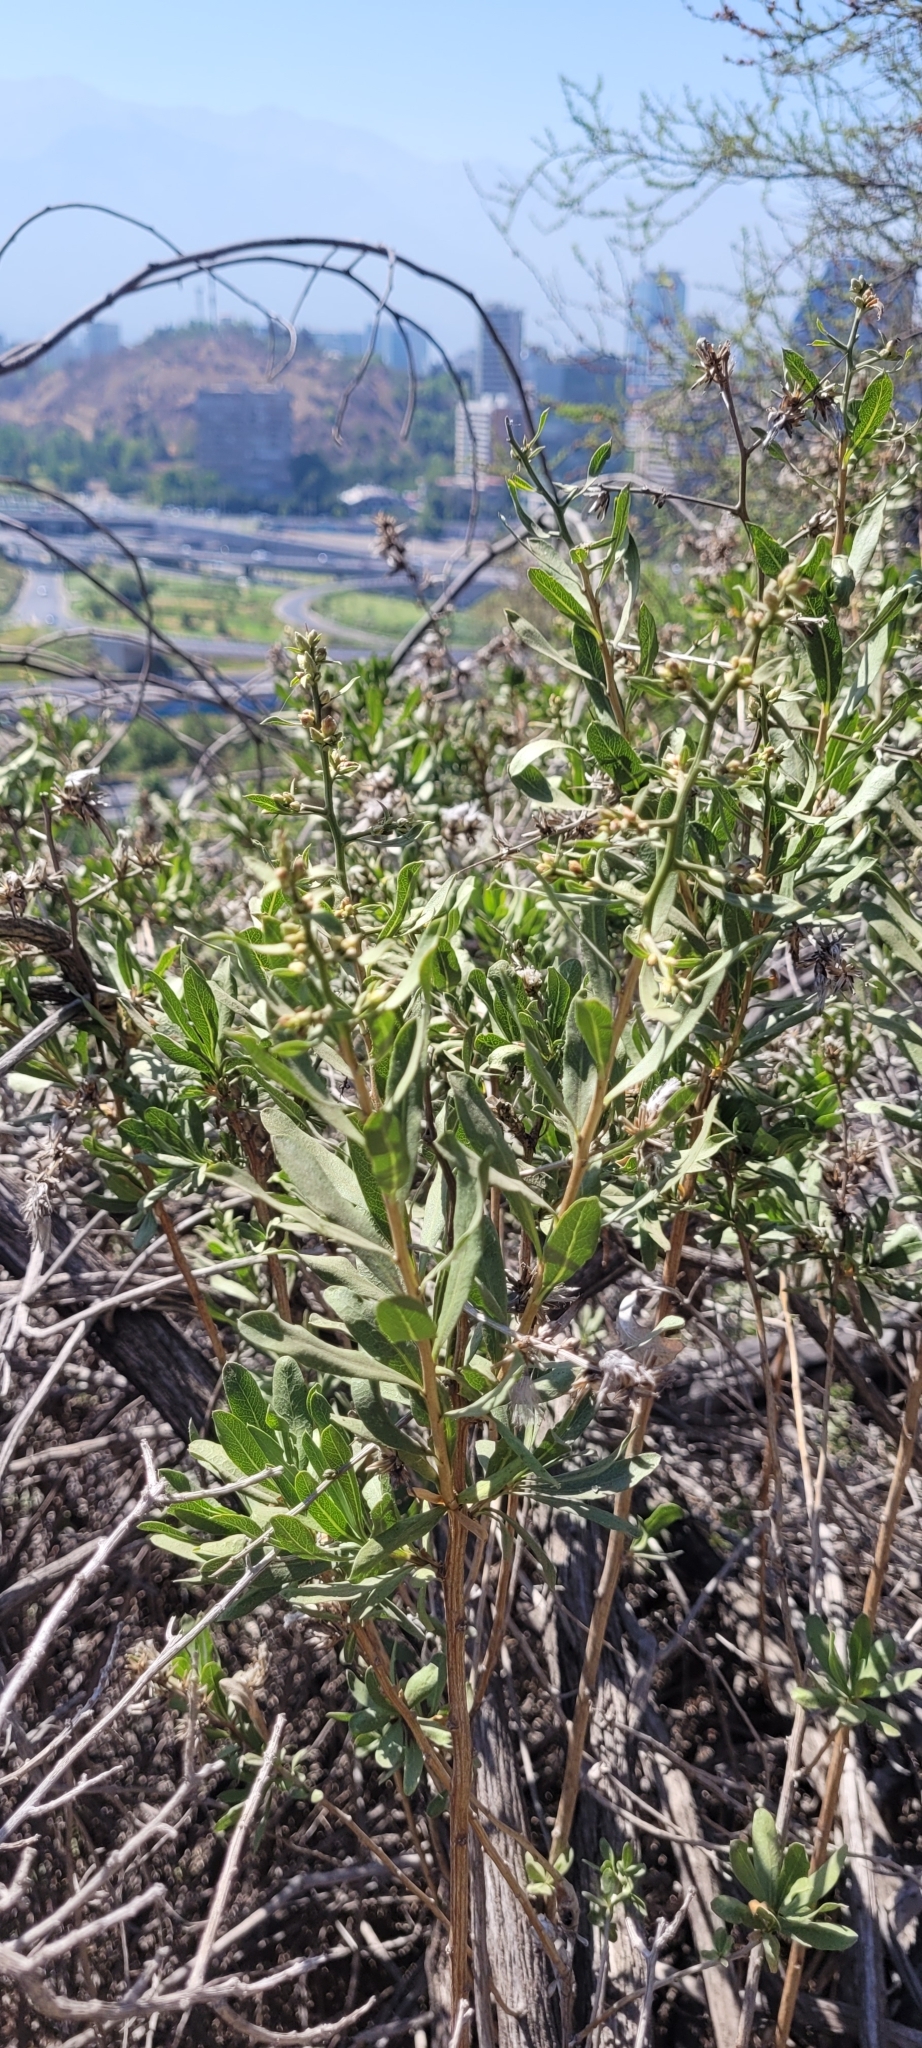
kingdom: Plantae
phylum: Tracheophyta
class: Magnoliopsida
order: Asterales
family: Asteraceae
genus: Proustia
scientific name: Proustia cuneifolia
